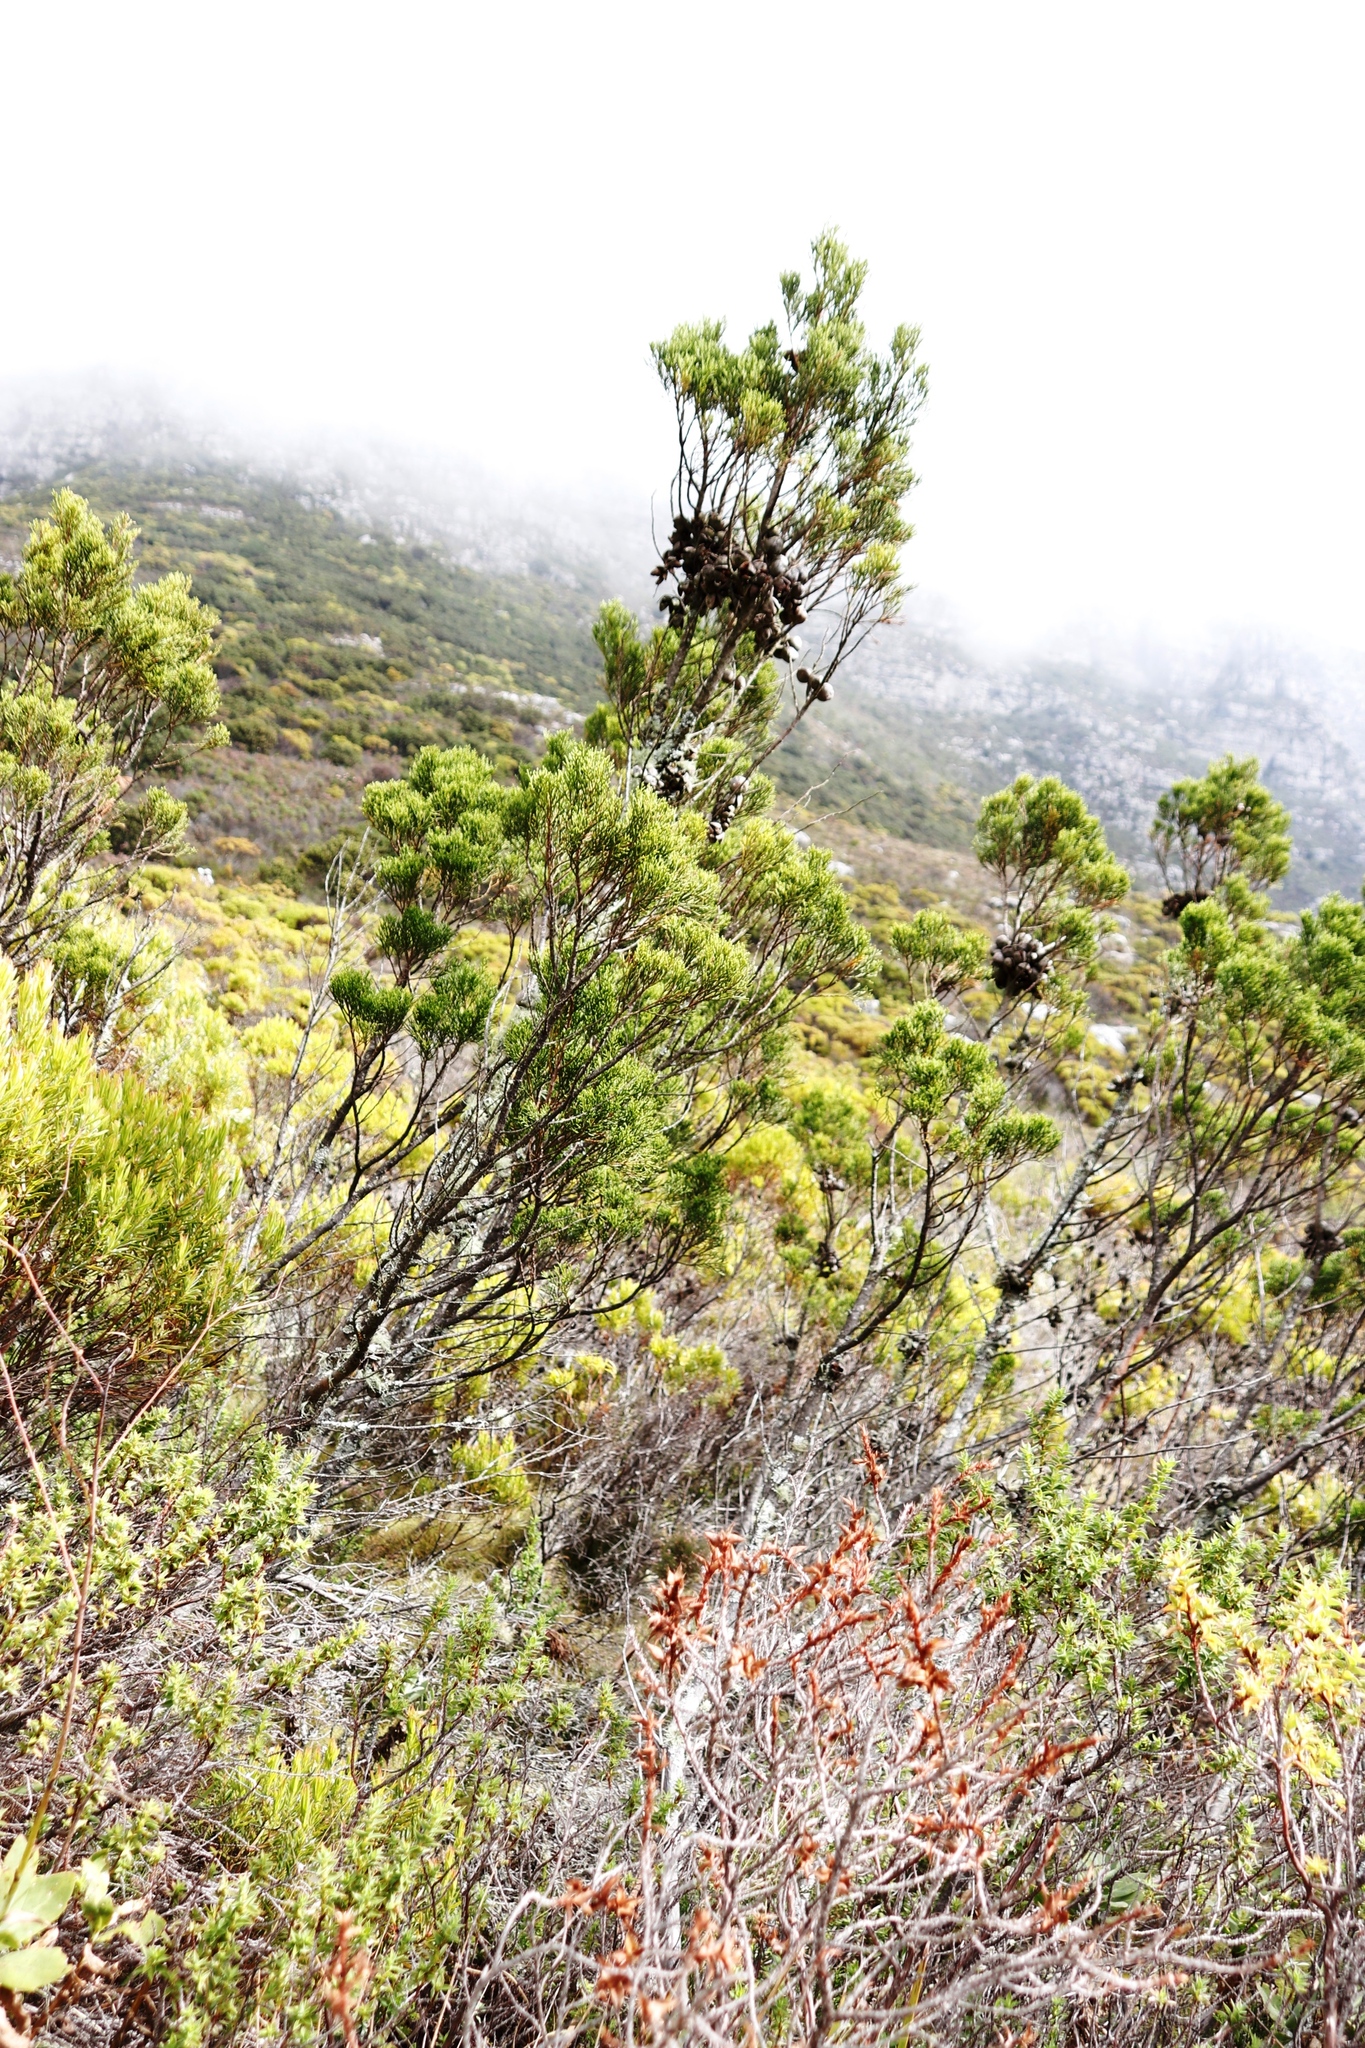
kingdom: Plantae
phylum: Tracheophyta
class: Pinopsida
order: Pinales
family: Cupressaceae
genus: Widdringtonia
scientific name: Widdringtonia nodiflora
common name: Cape cypress
